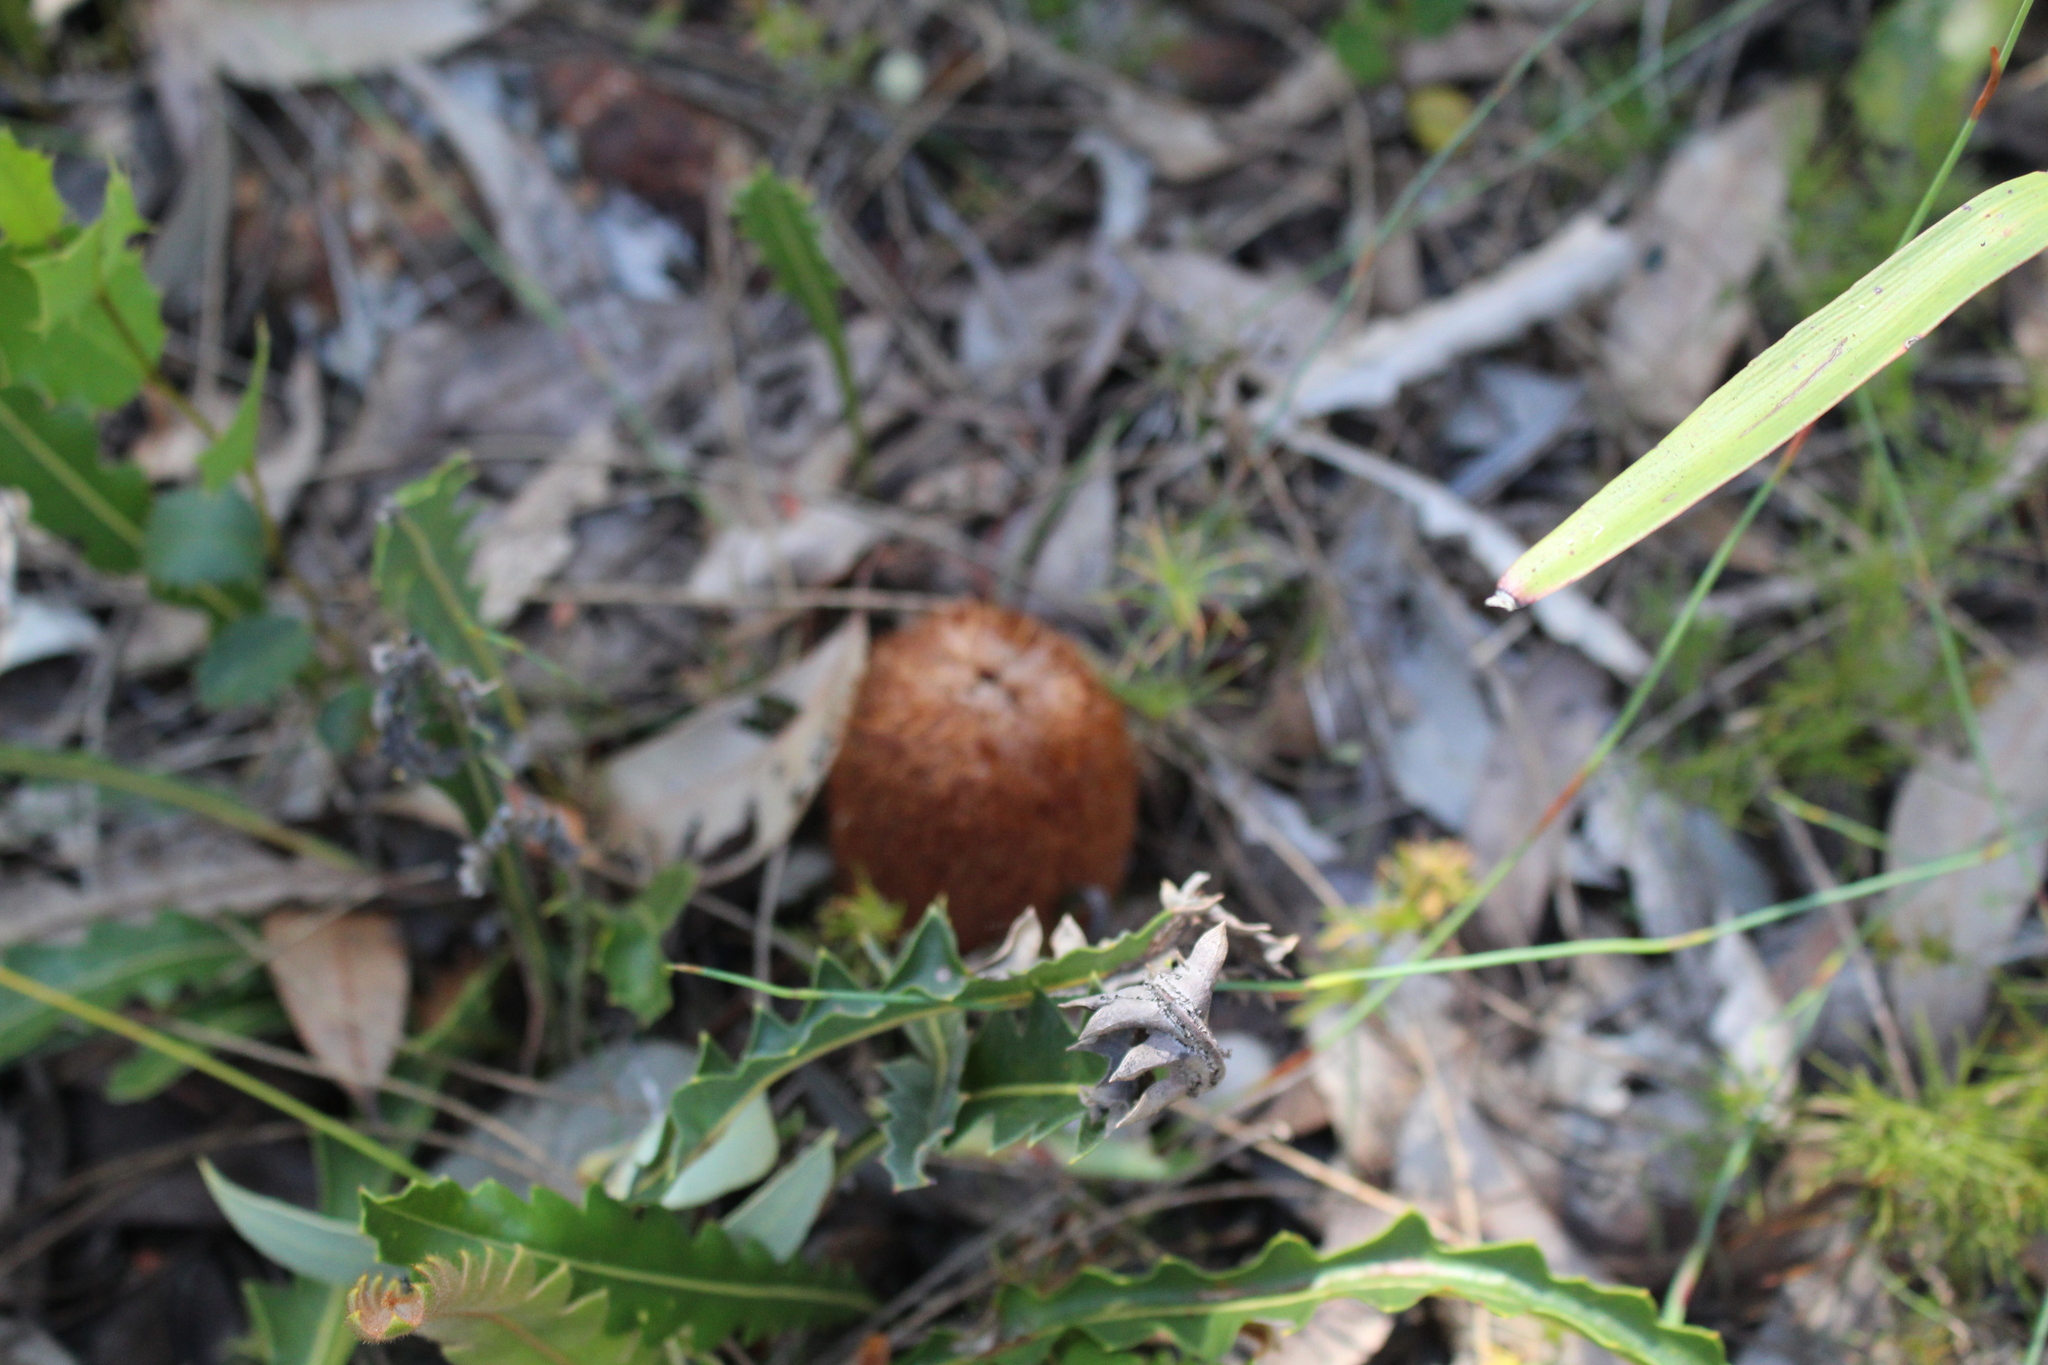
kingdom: Plantae
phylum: Tracheophyta
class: Magnoliopsida
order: Proteales
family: Proteaceae
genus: Banksia
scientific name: Banksia gardneri
